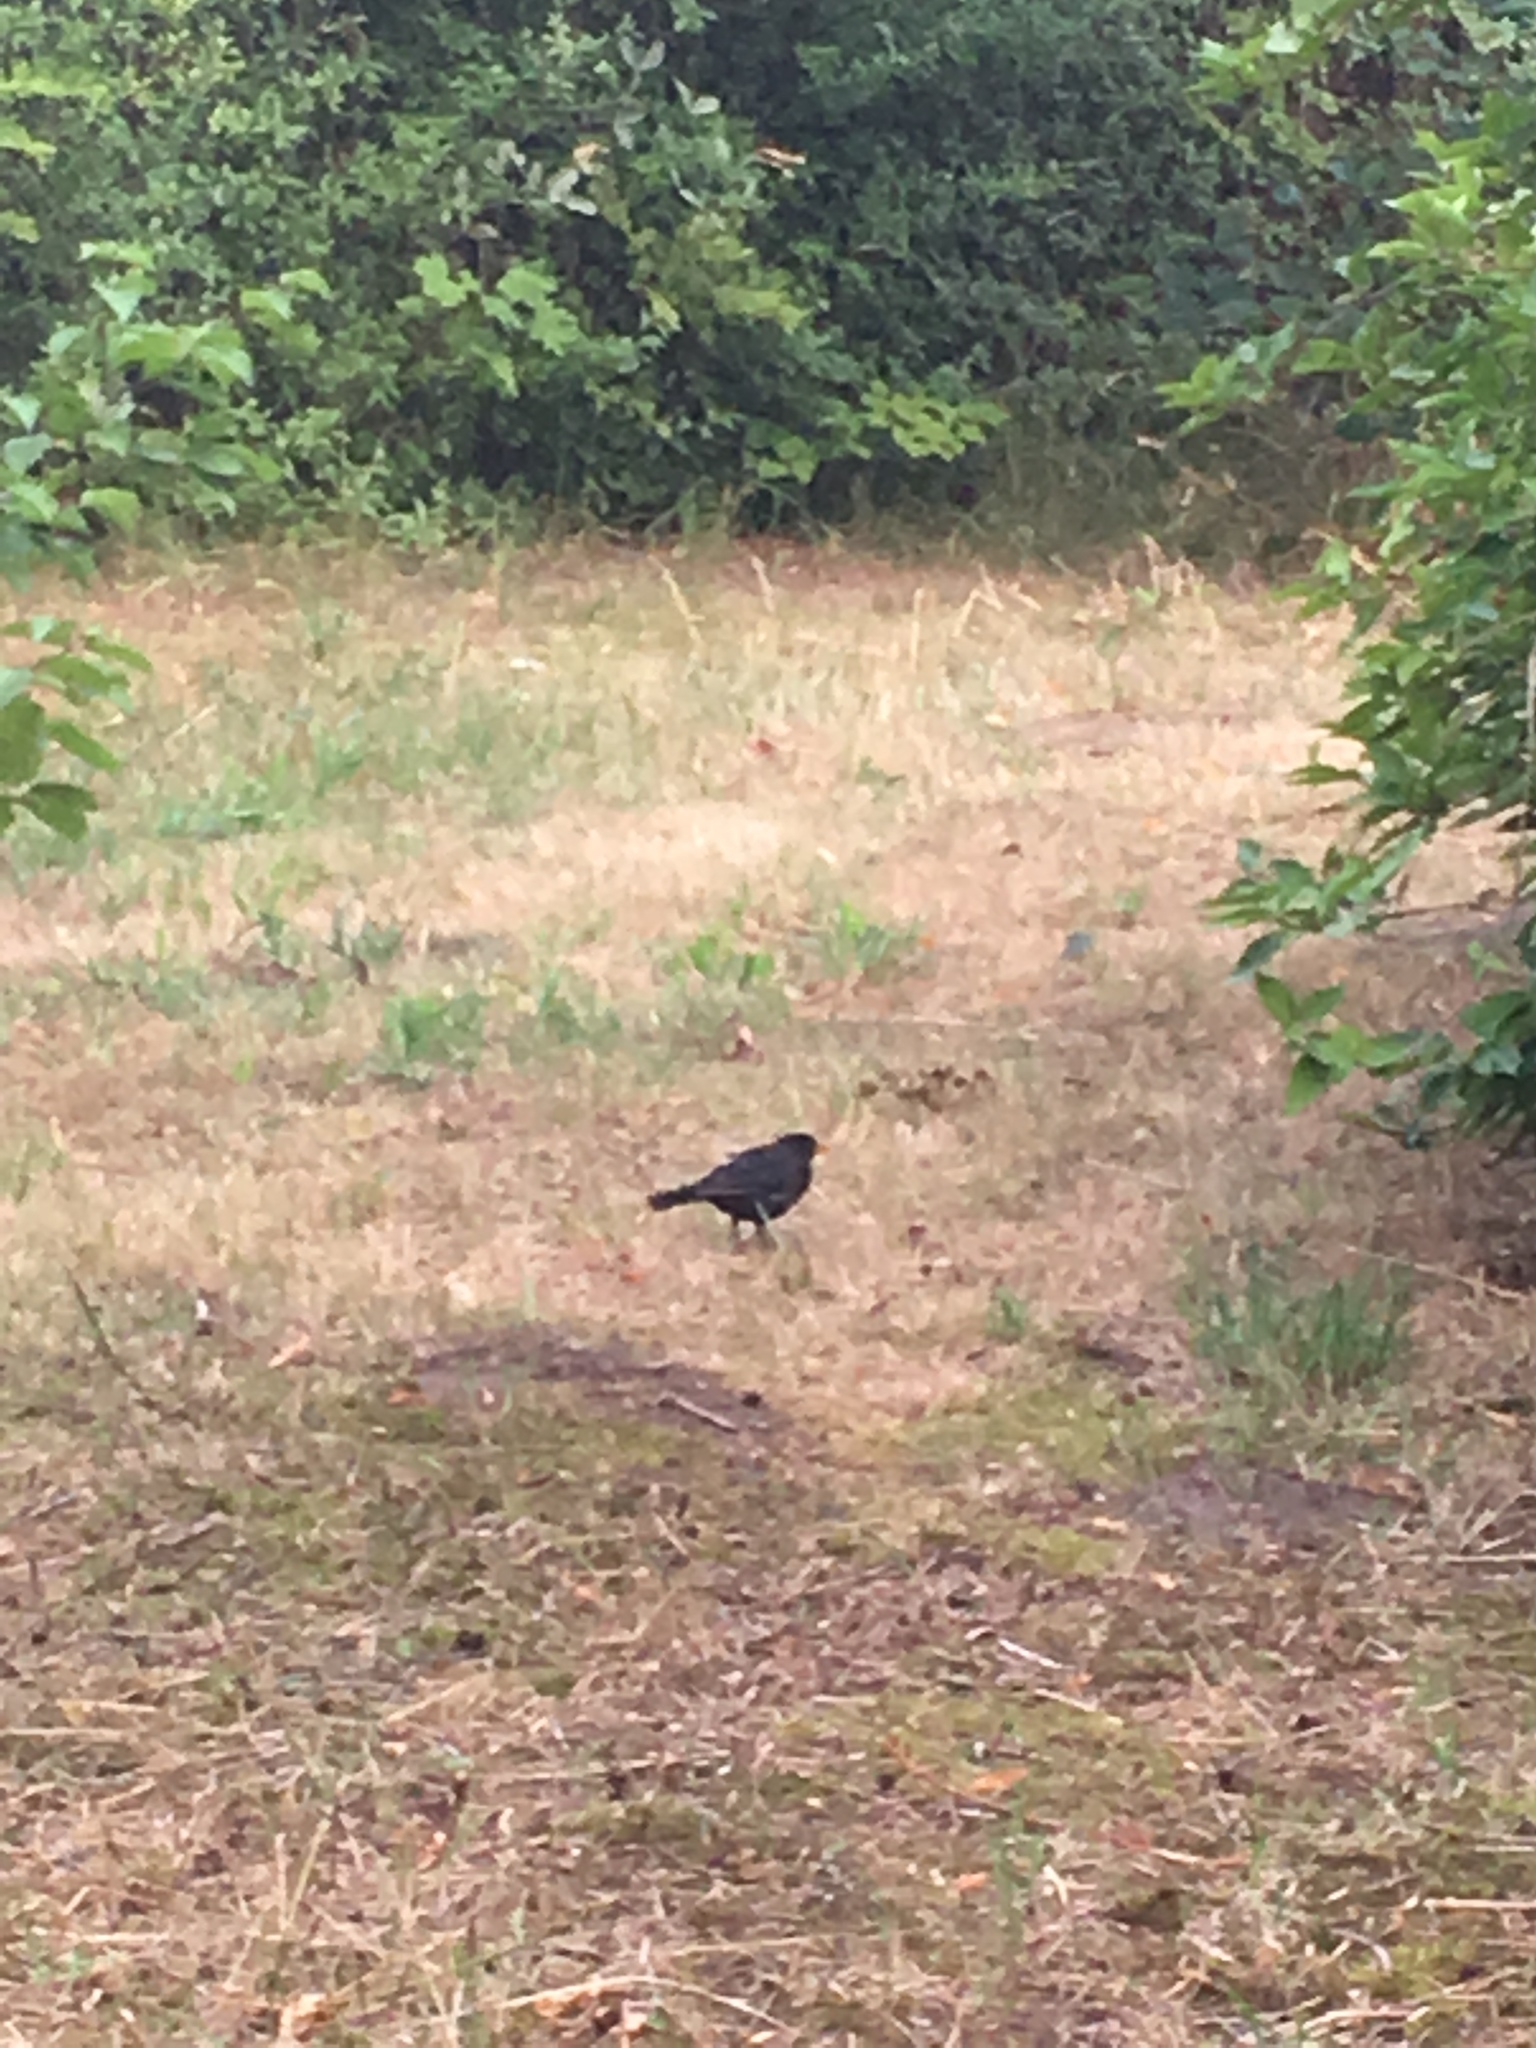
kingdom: Animalia
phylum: Chordata
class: Aves
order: Passeriformes
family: Turdidae
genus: Turdus
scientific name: Turdus merula
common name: Common blackbird
